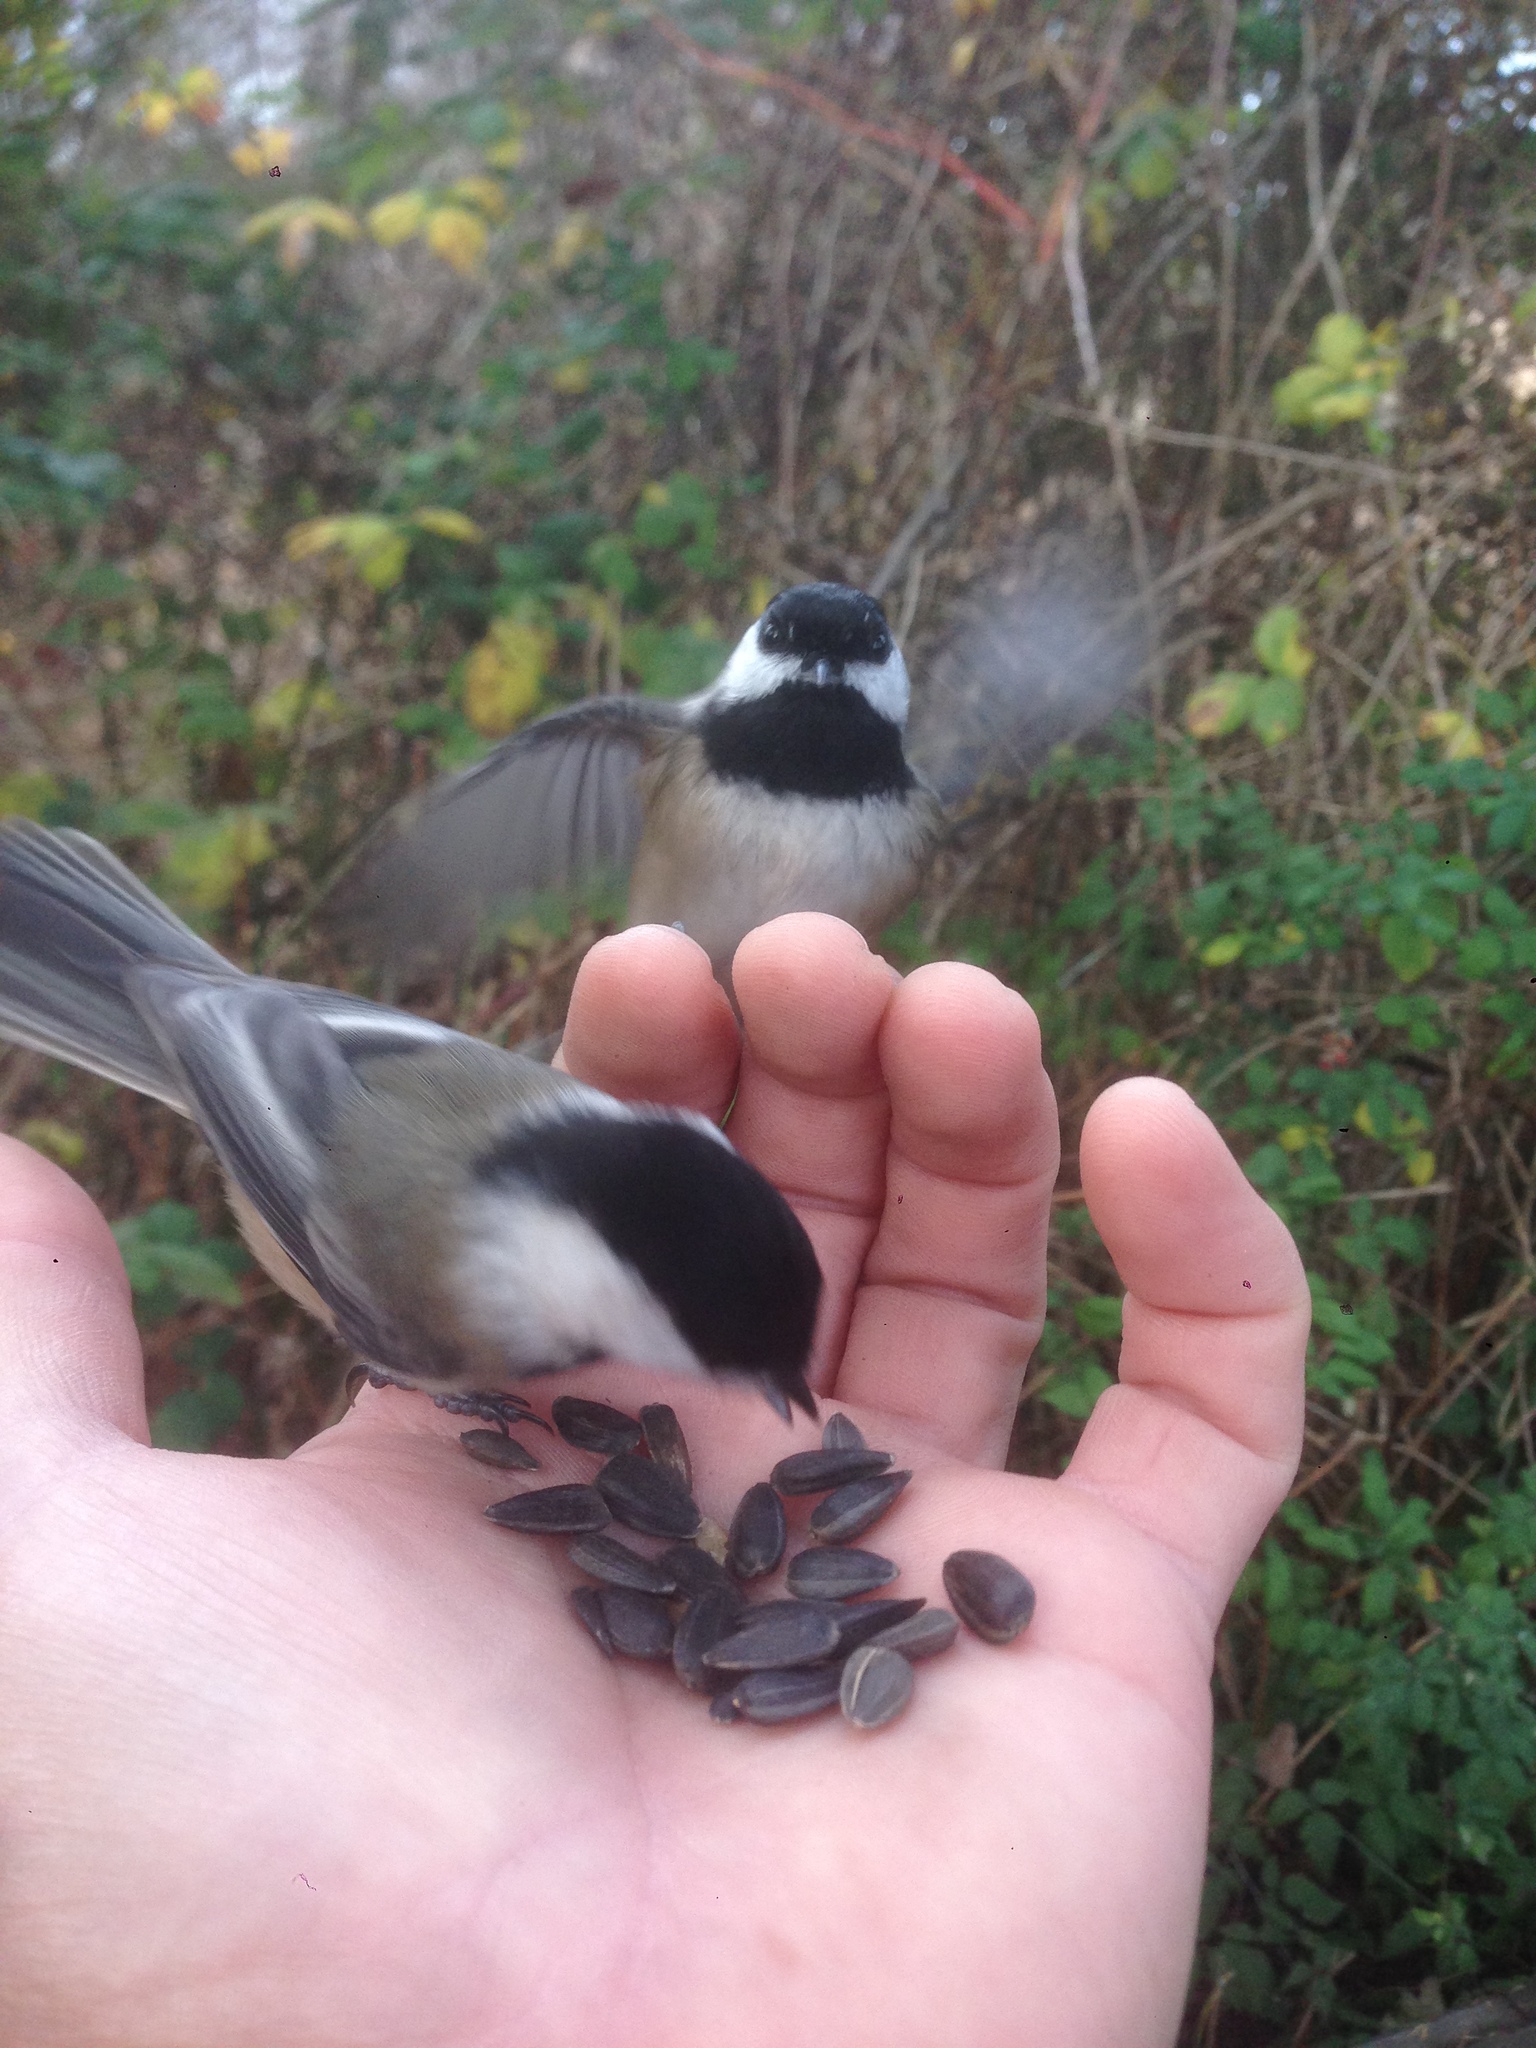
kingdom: Animalia
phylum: Chordata
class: Aves
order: Passeriformes
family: Paridae
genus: Poecile
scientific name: Poecile atricapillus
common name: Black-capped chickadee
